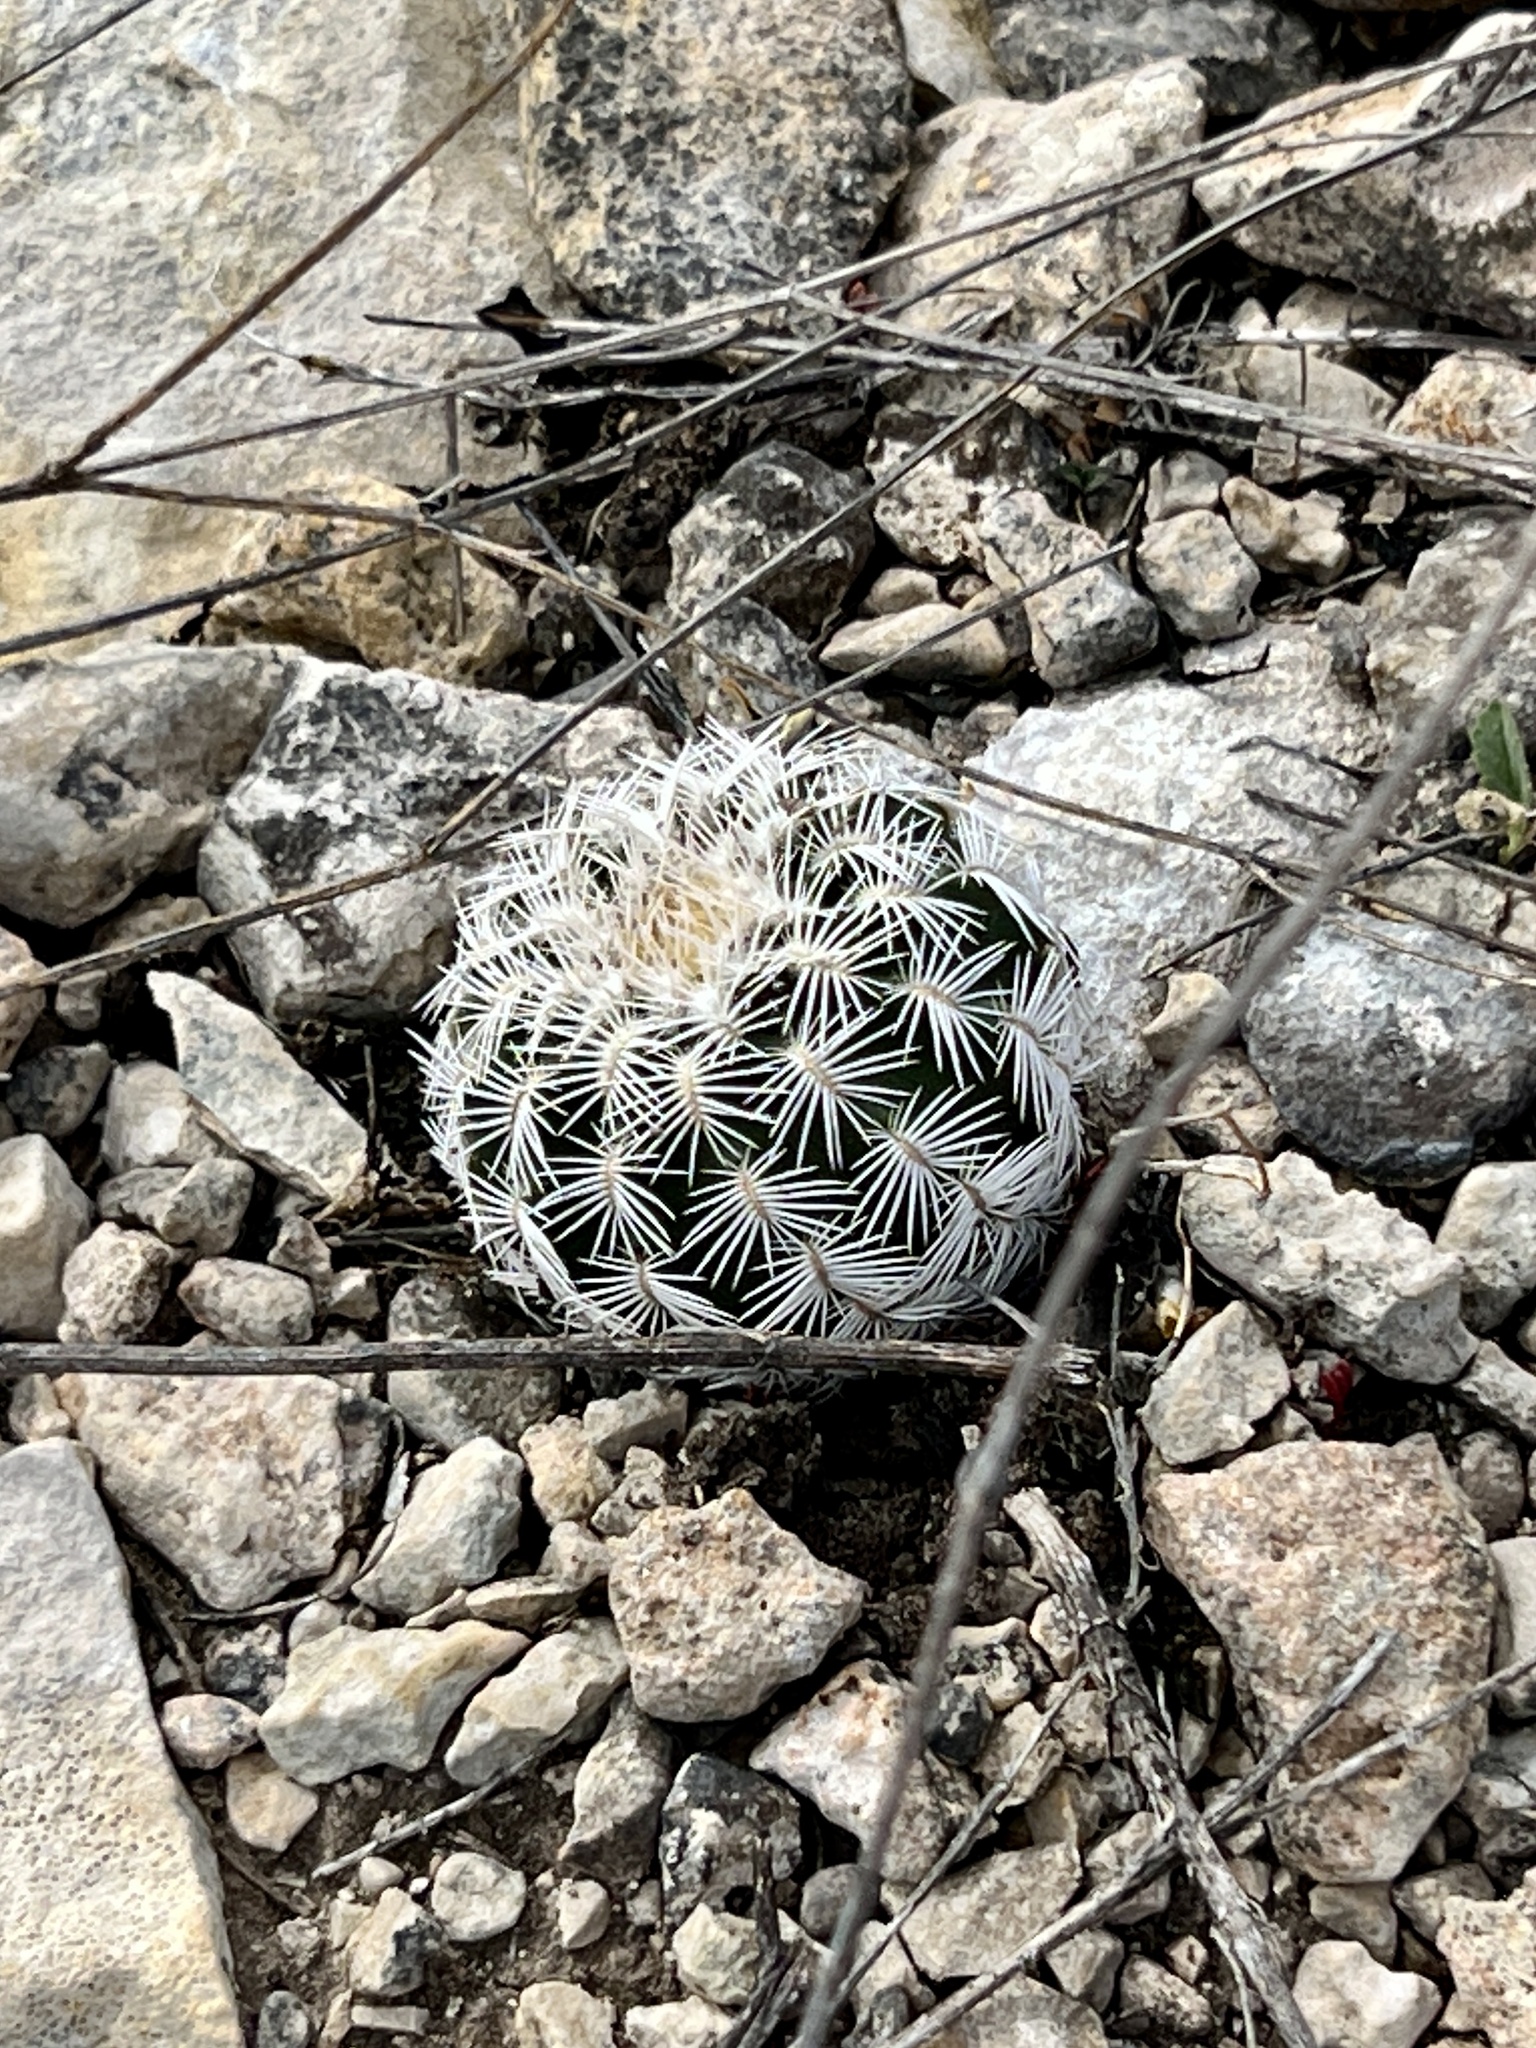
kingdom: Plantae
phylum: Tracheophyta
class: Magnoliopsida
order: Caryophyllales
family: Cactaceae
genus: Echinocereus
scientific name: Echinocereus reichenbachii
